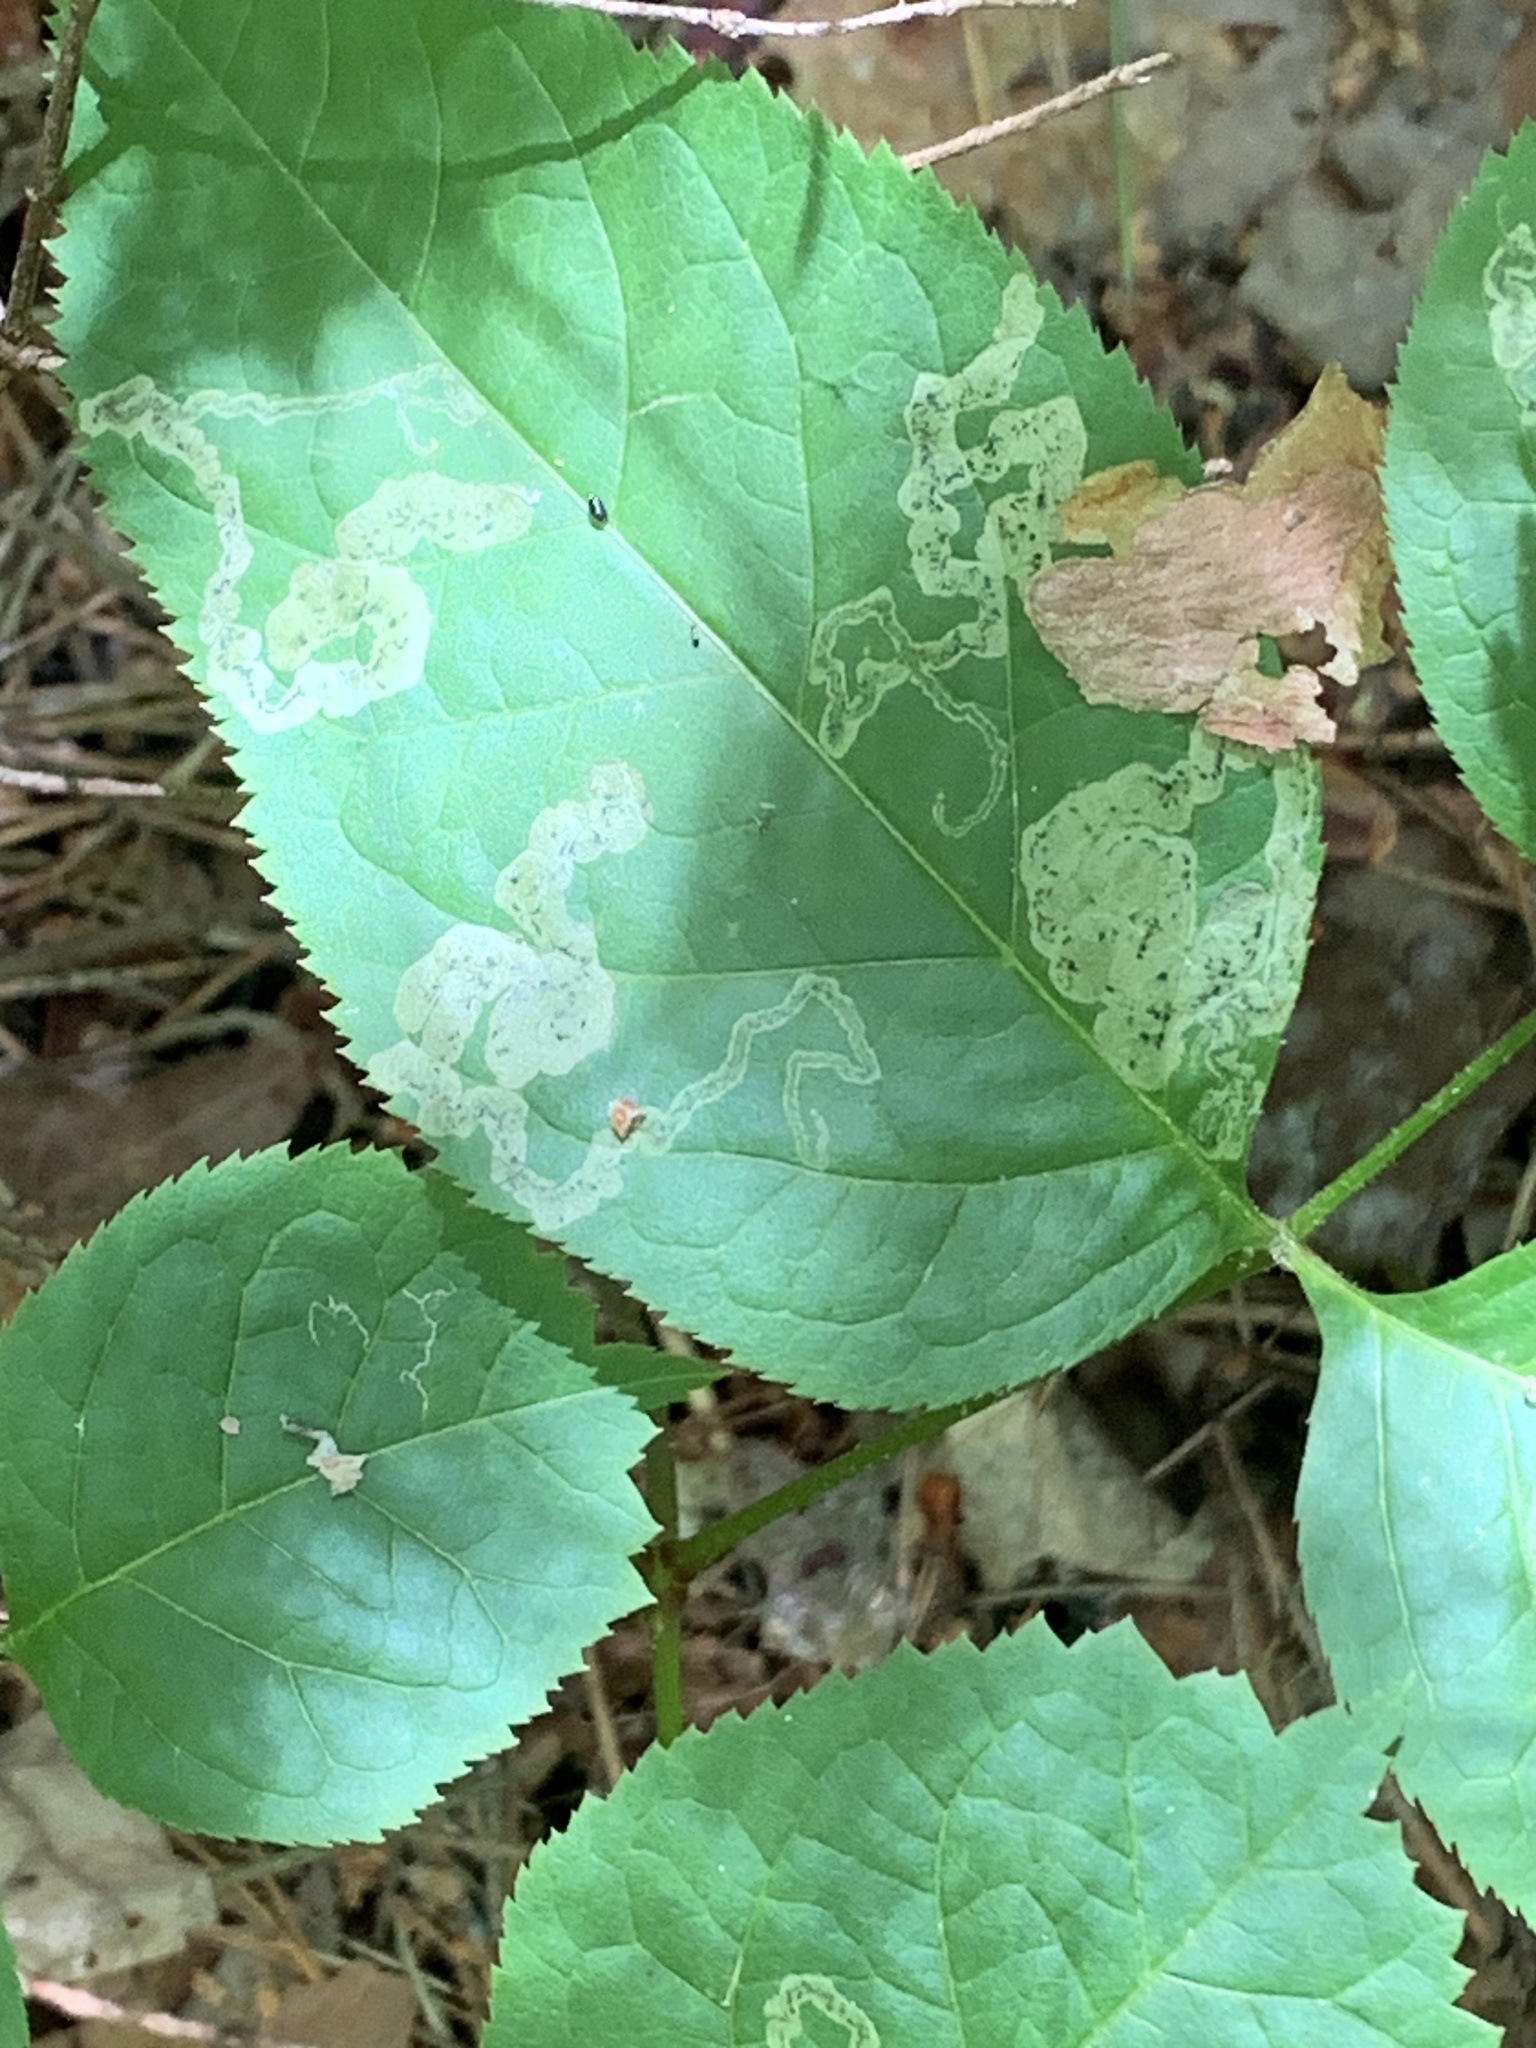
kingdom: Animalia
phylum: Arthropoda
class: Insecta
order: Diptera
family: Agromyzidae
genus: Phytomyza
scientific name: Phytomyza aralivora
